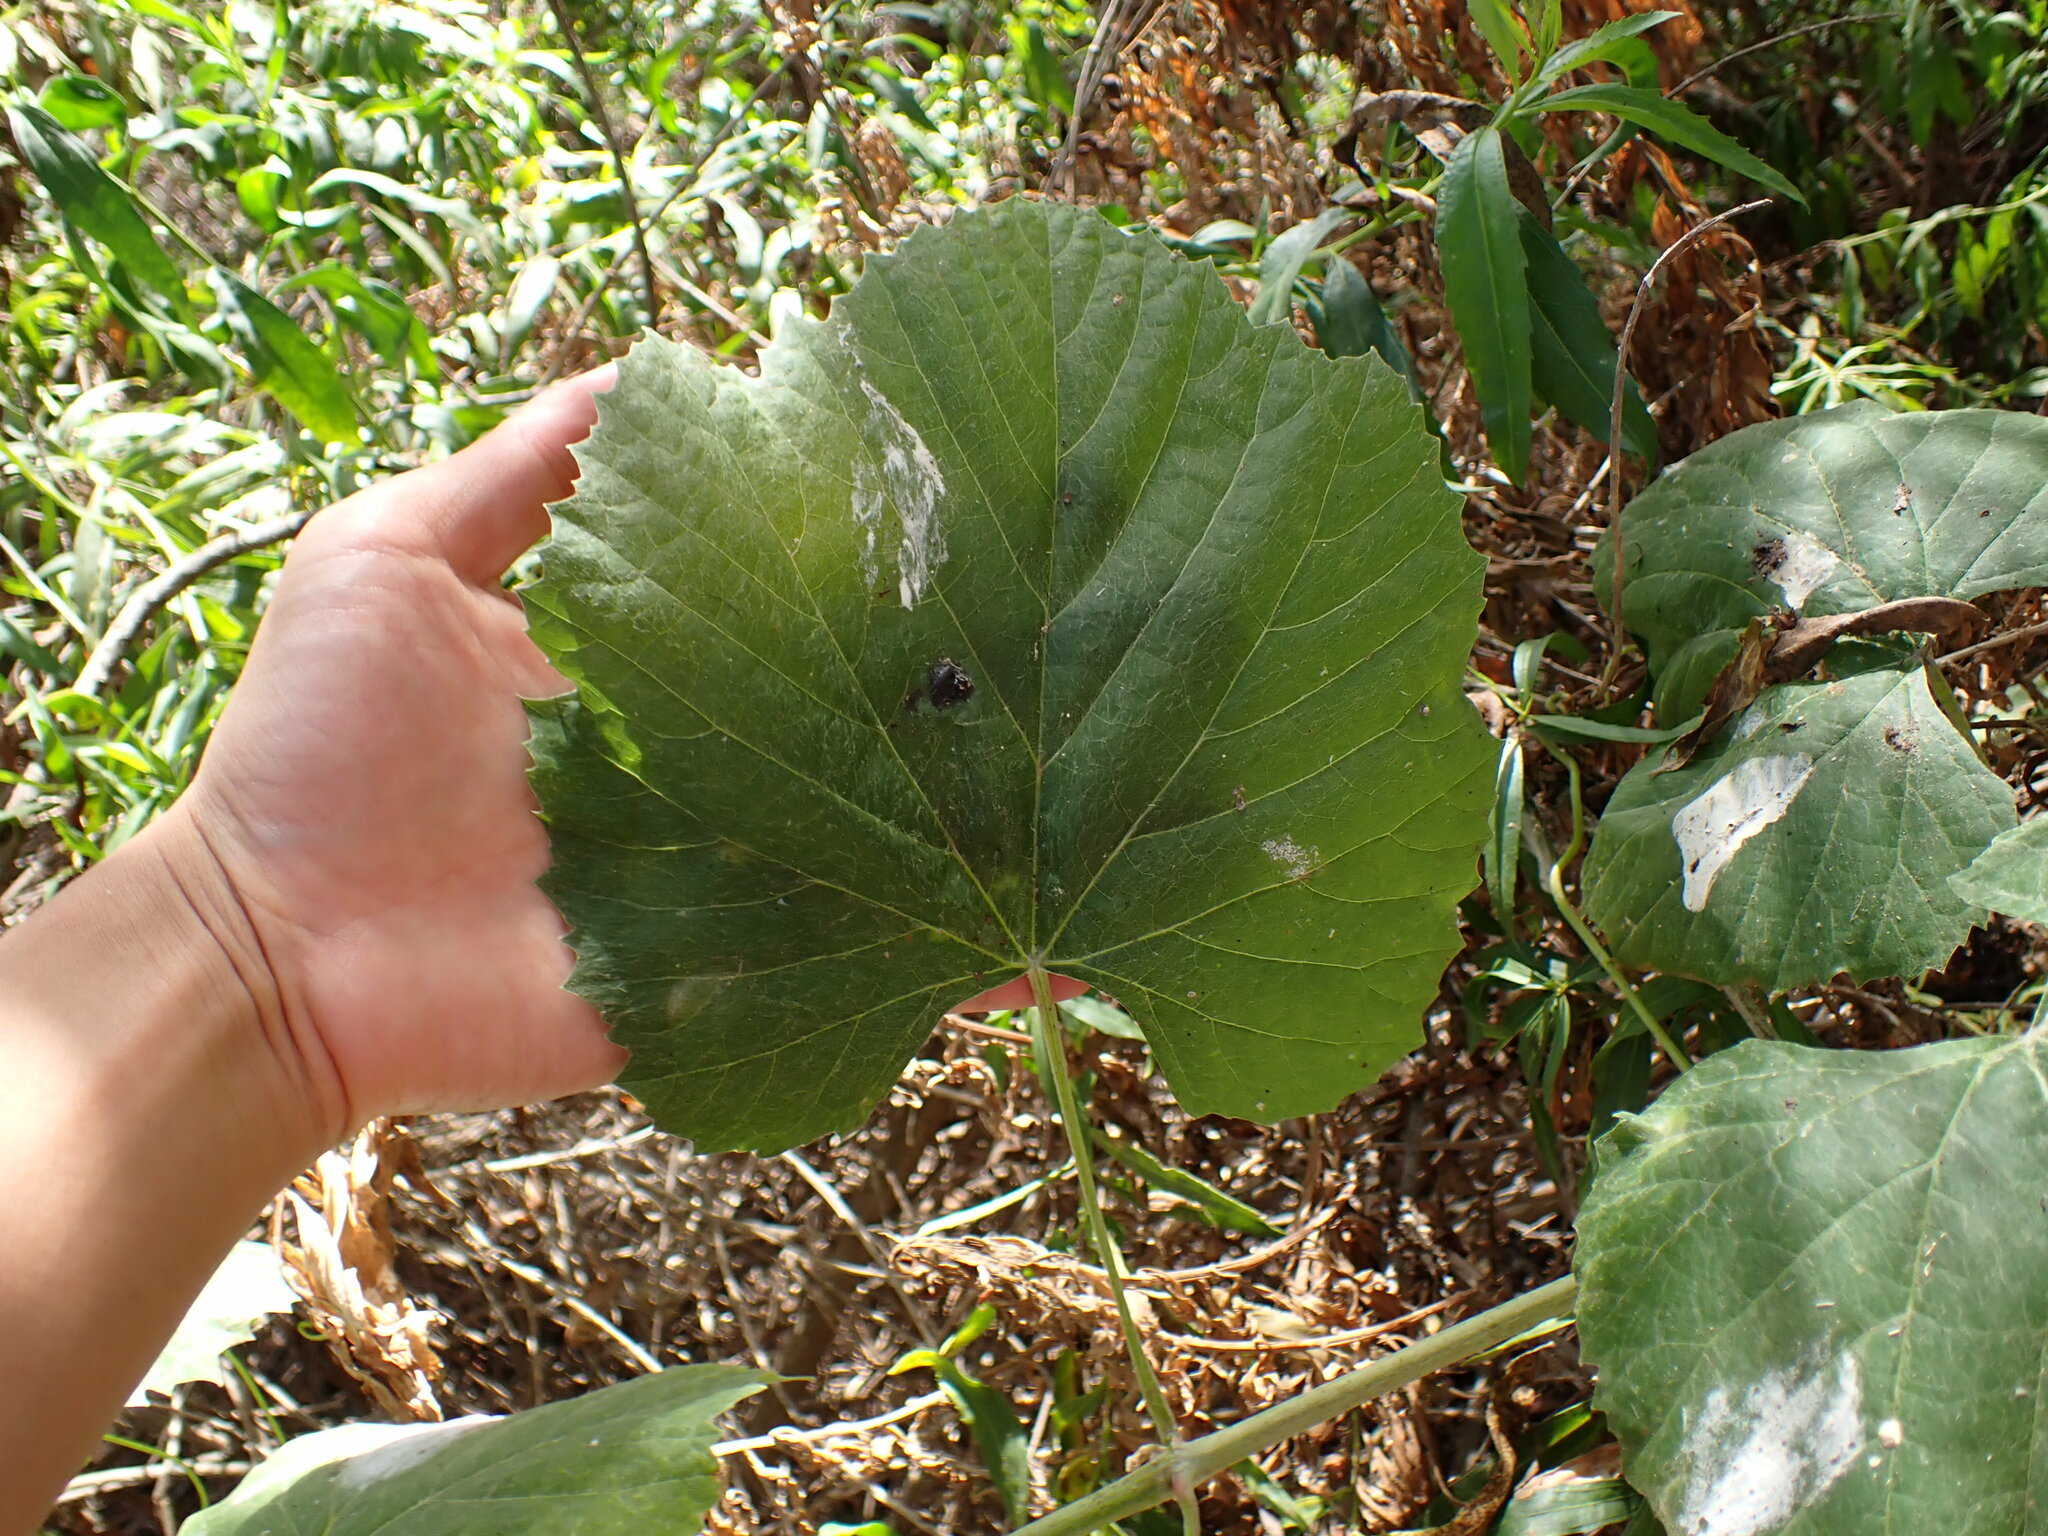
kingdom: Plantae
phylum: Tracheophyta
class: Magnoliopsida
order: Vitales
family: Vitaceae
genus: Vitis
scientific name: Vitis girdiana
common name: Desert wild grape
